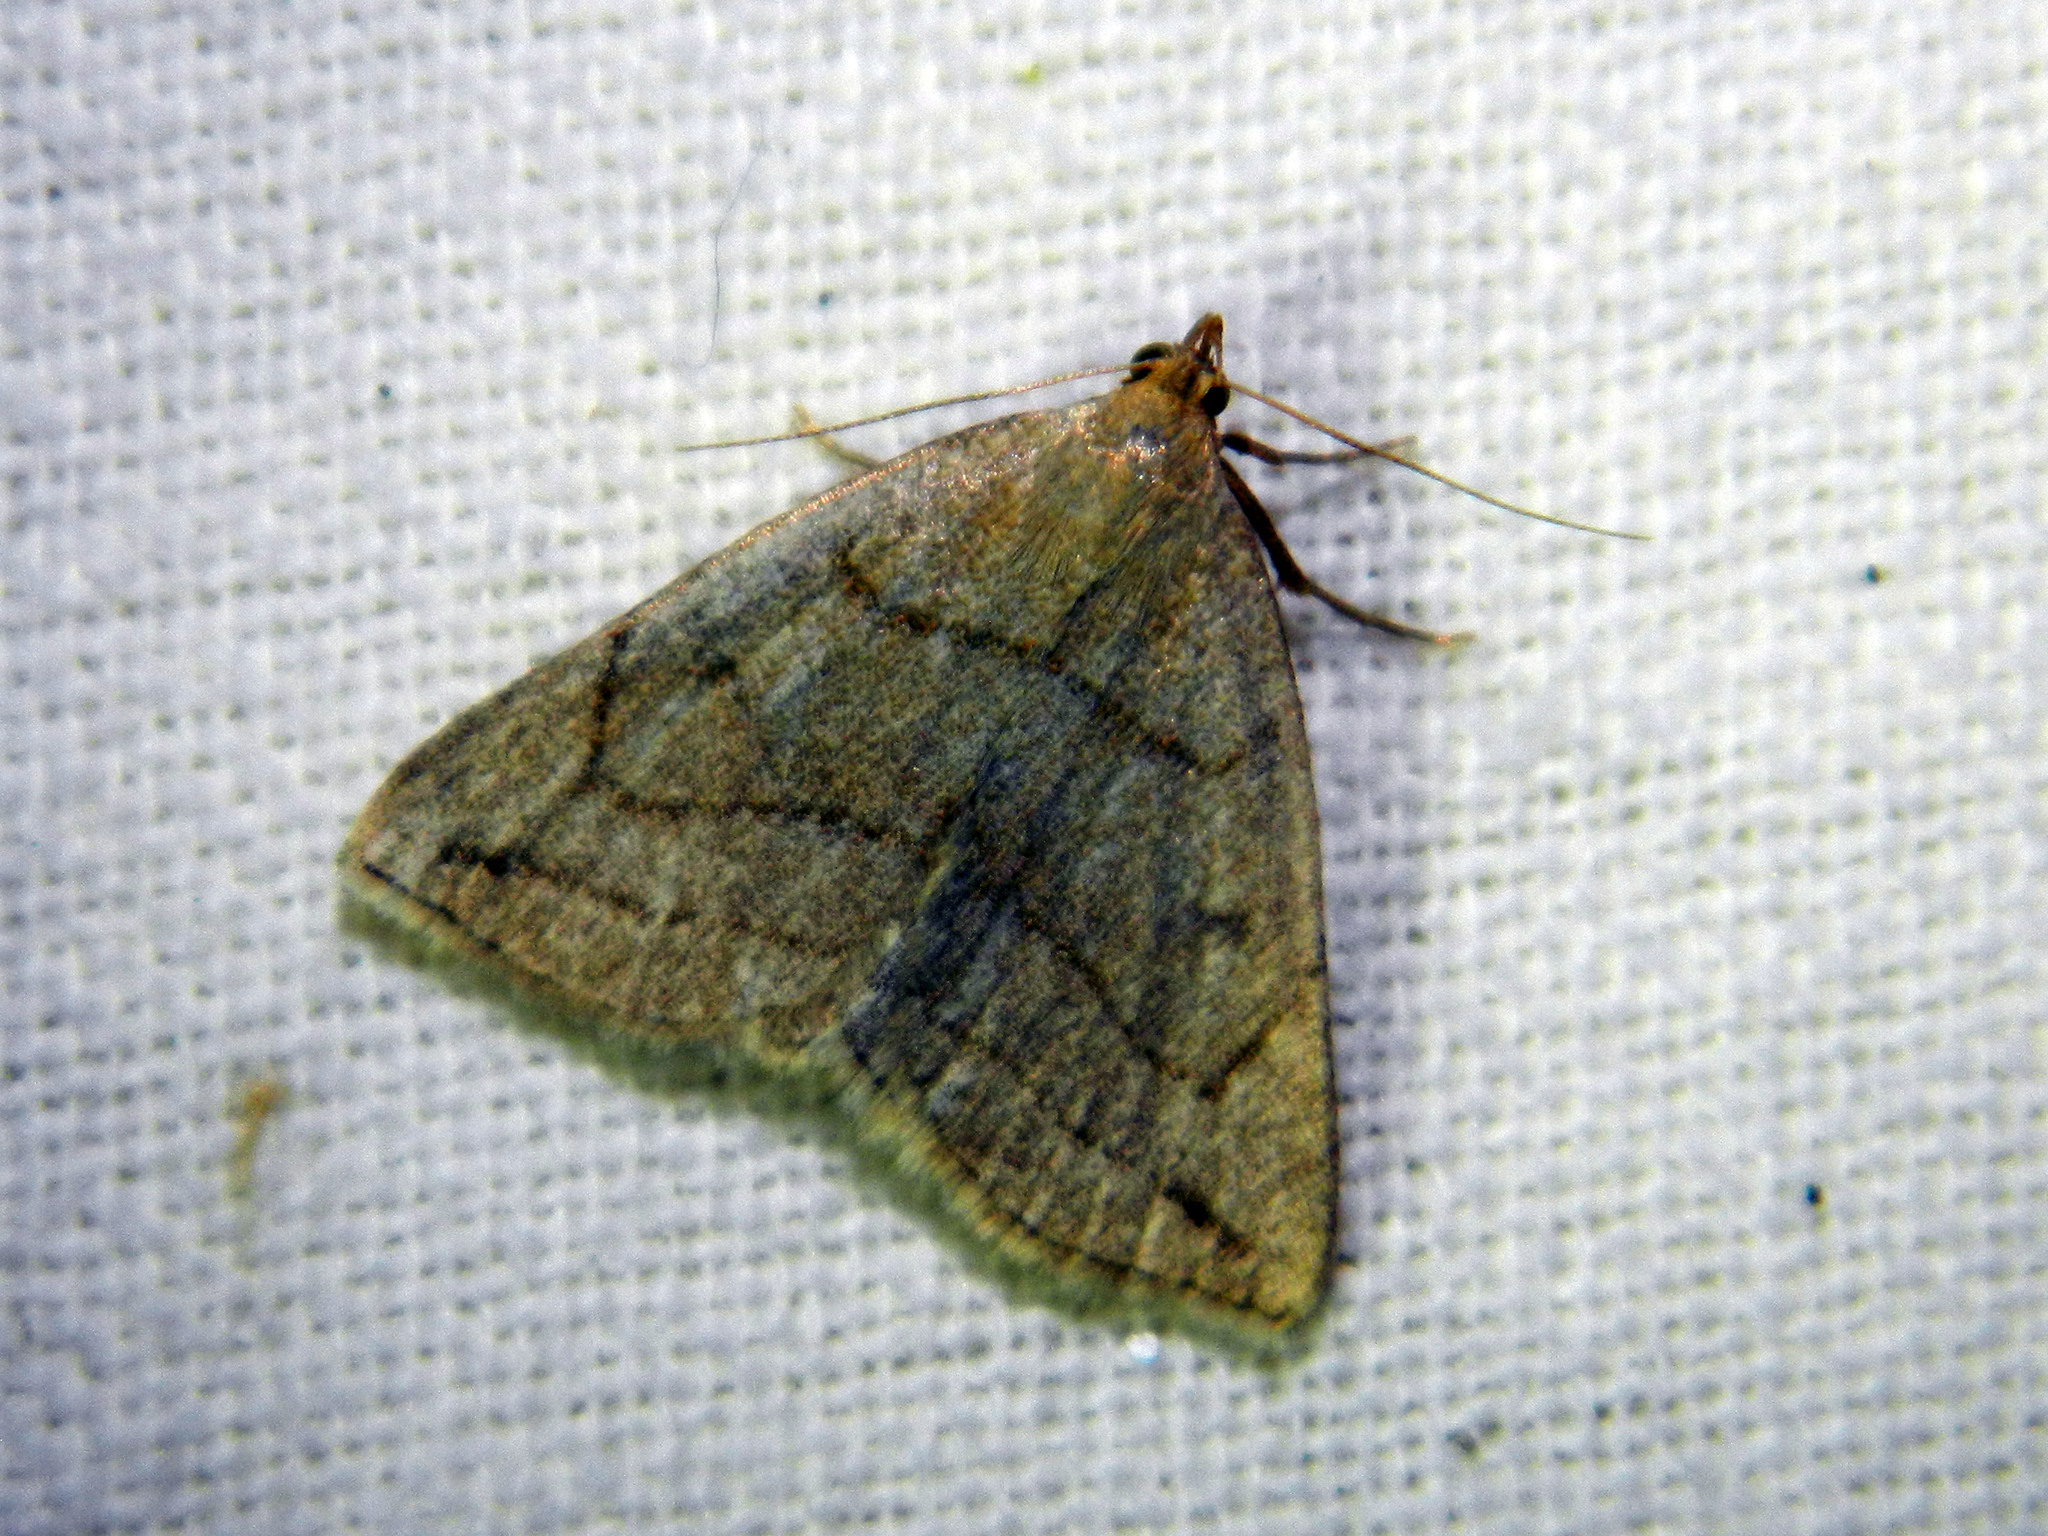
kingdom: Animalia
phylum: Arthropoda
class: Insecta
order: Lepidoptera
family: Erebidae
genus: Zanclognatha
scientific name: Zanclognatha pedipilalis
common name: Grayish fan-foot
